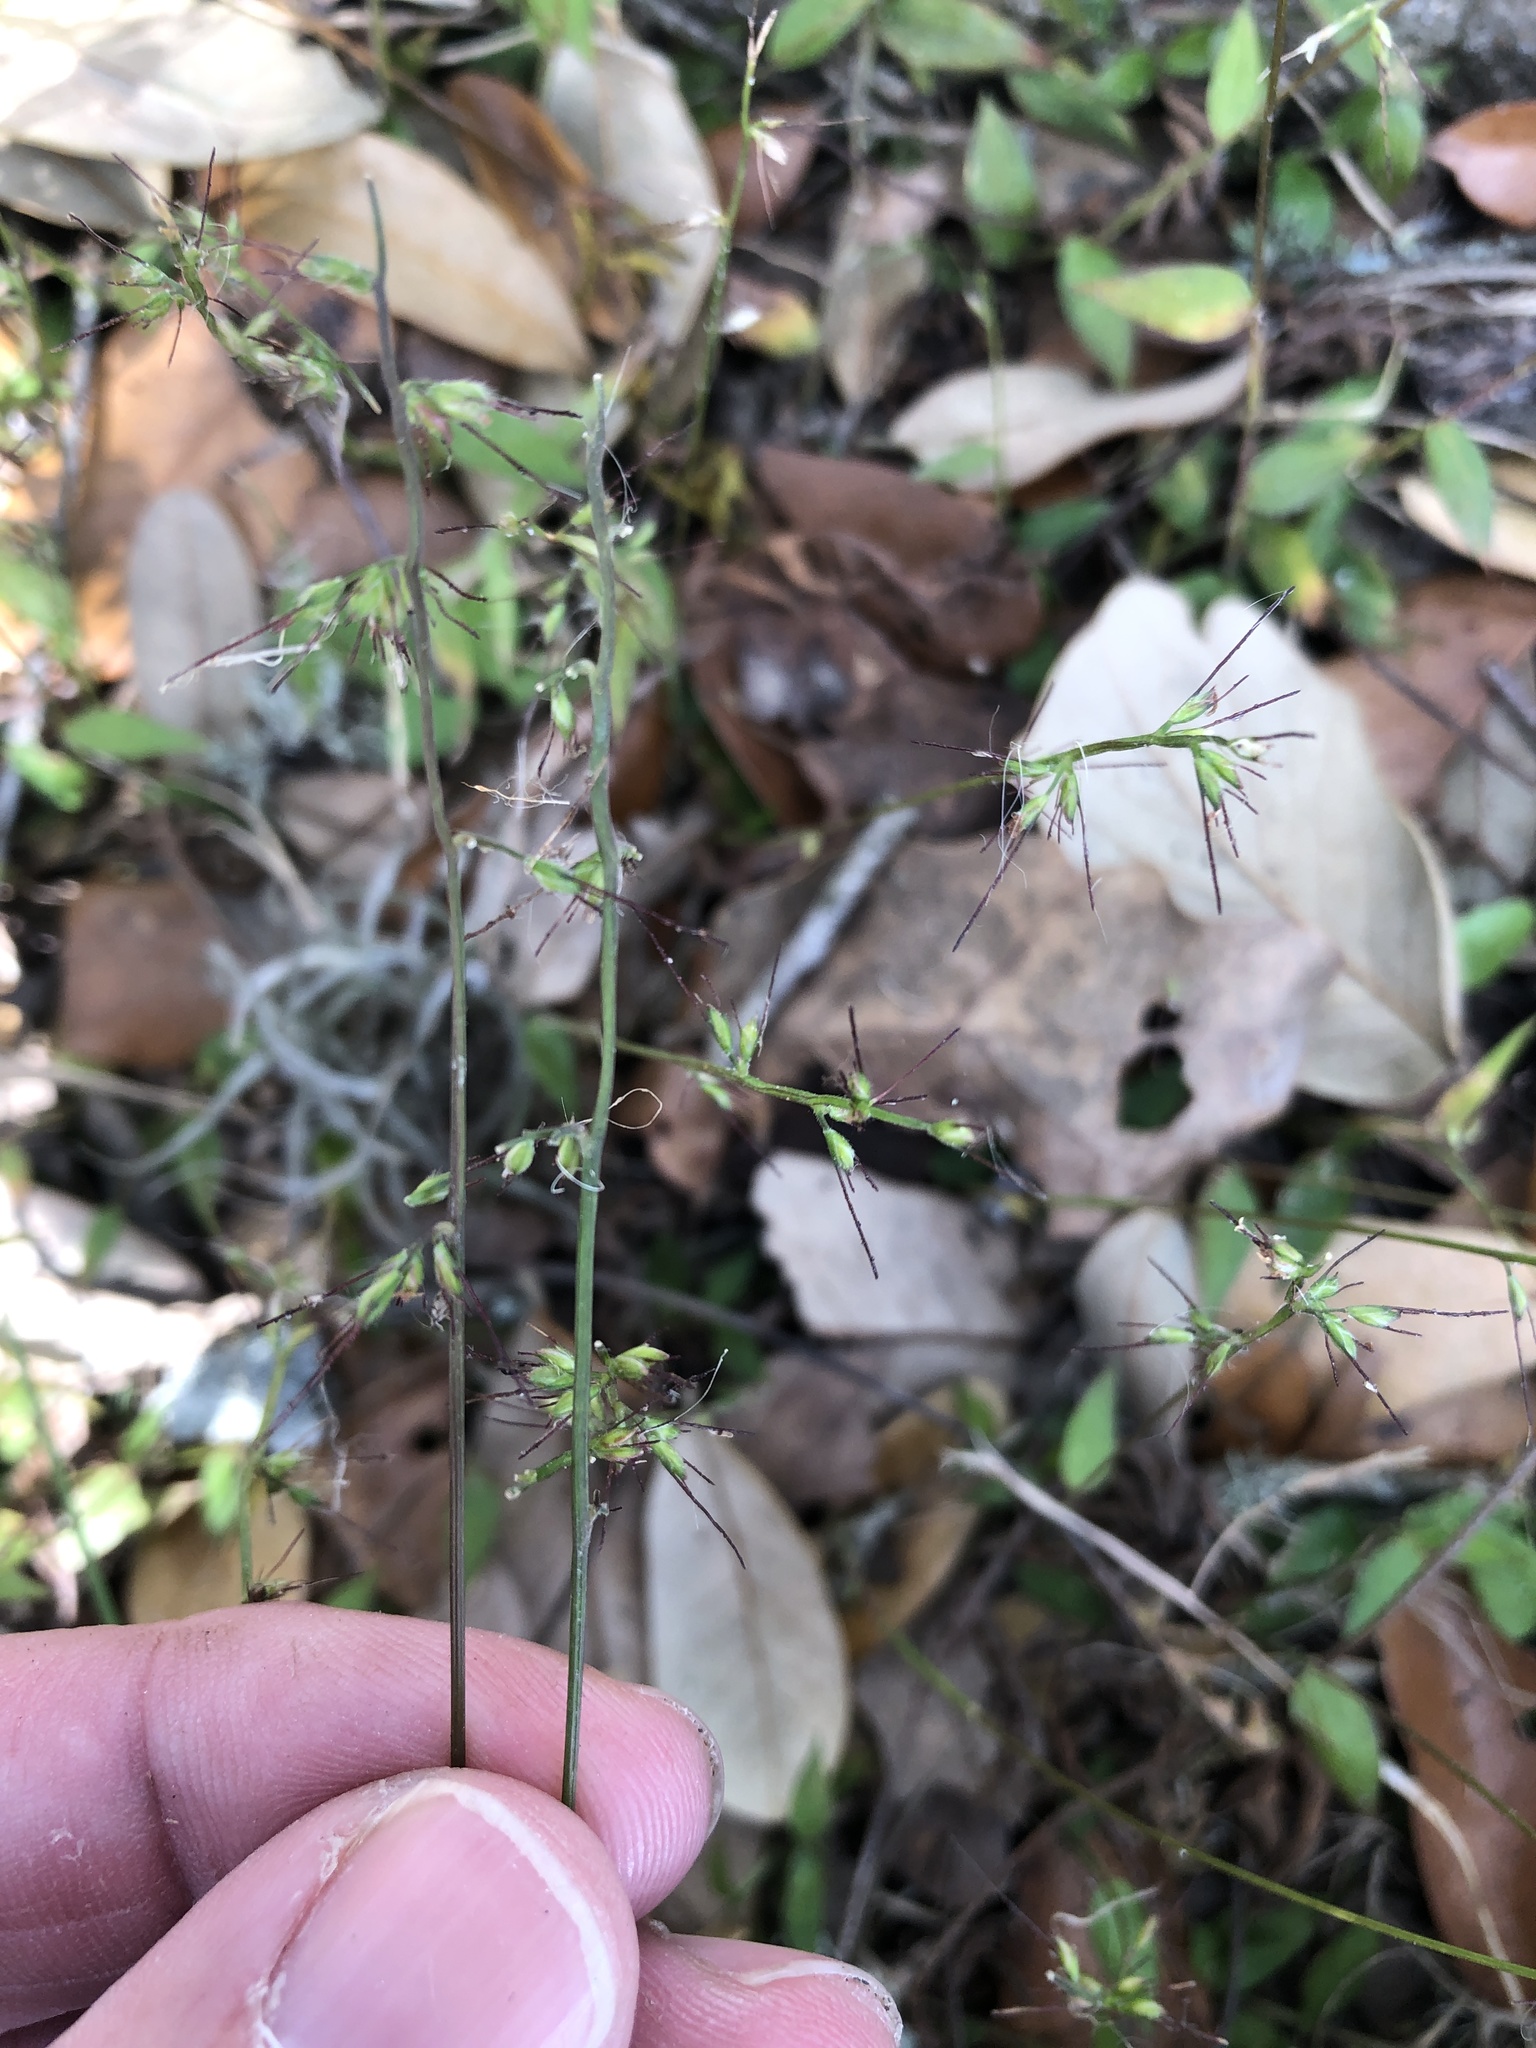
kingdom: Plantae
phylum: Tracheophyta
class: Liliopsida
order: Poales
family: Poaceae
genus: Oplismenus
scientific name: Oplismenus hirtellus
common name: Basketgrass
